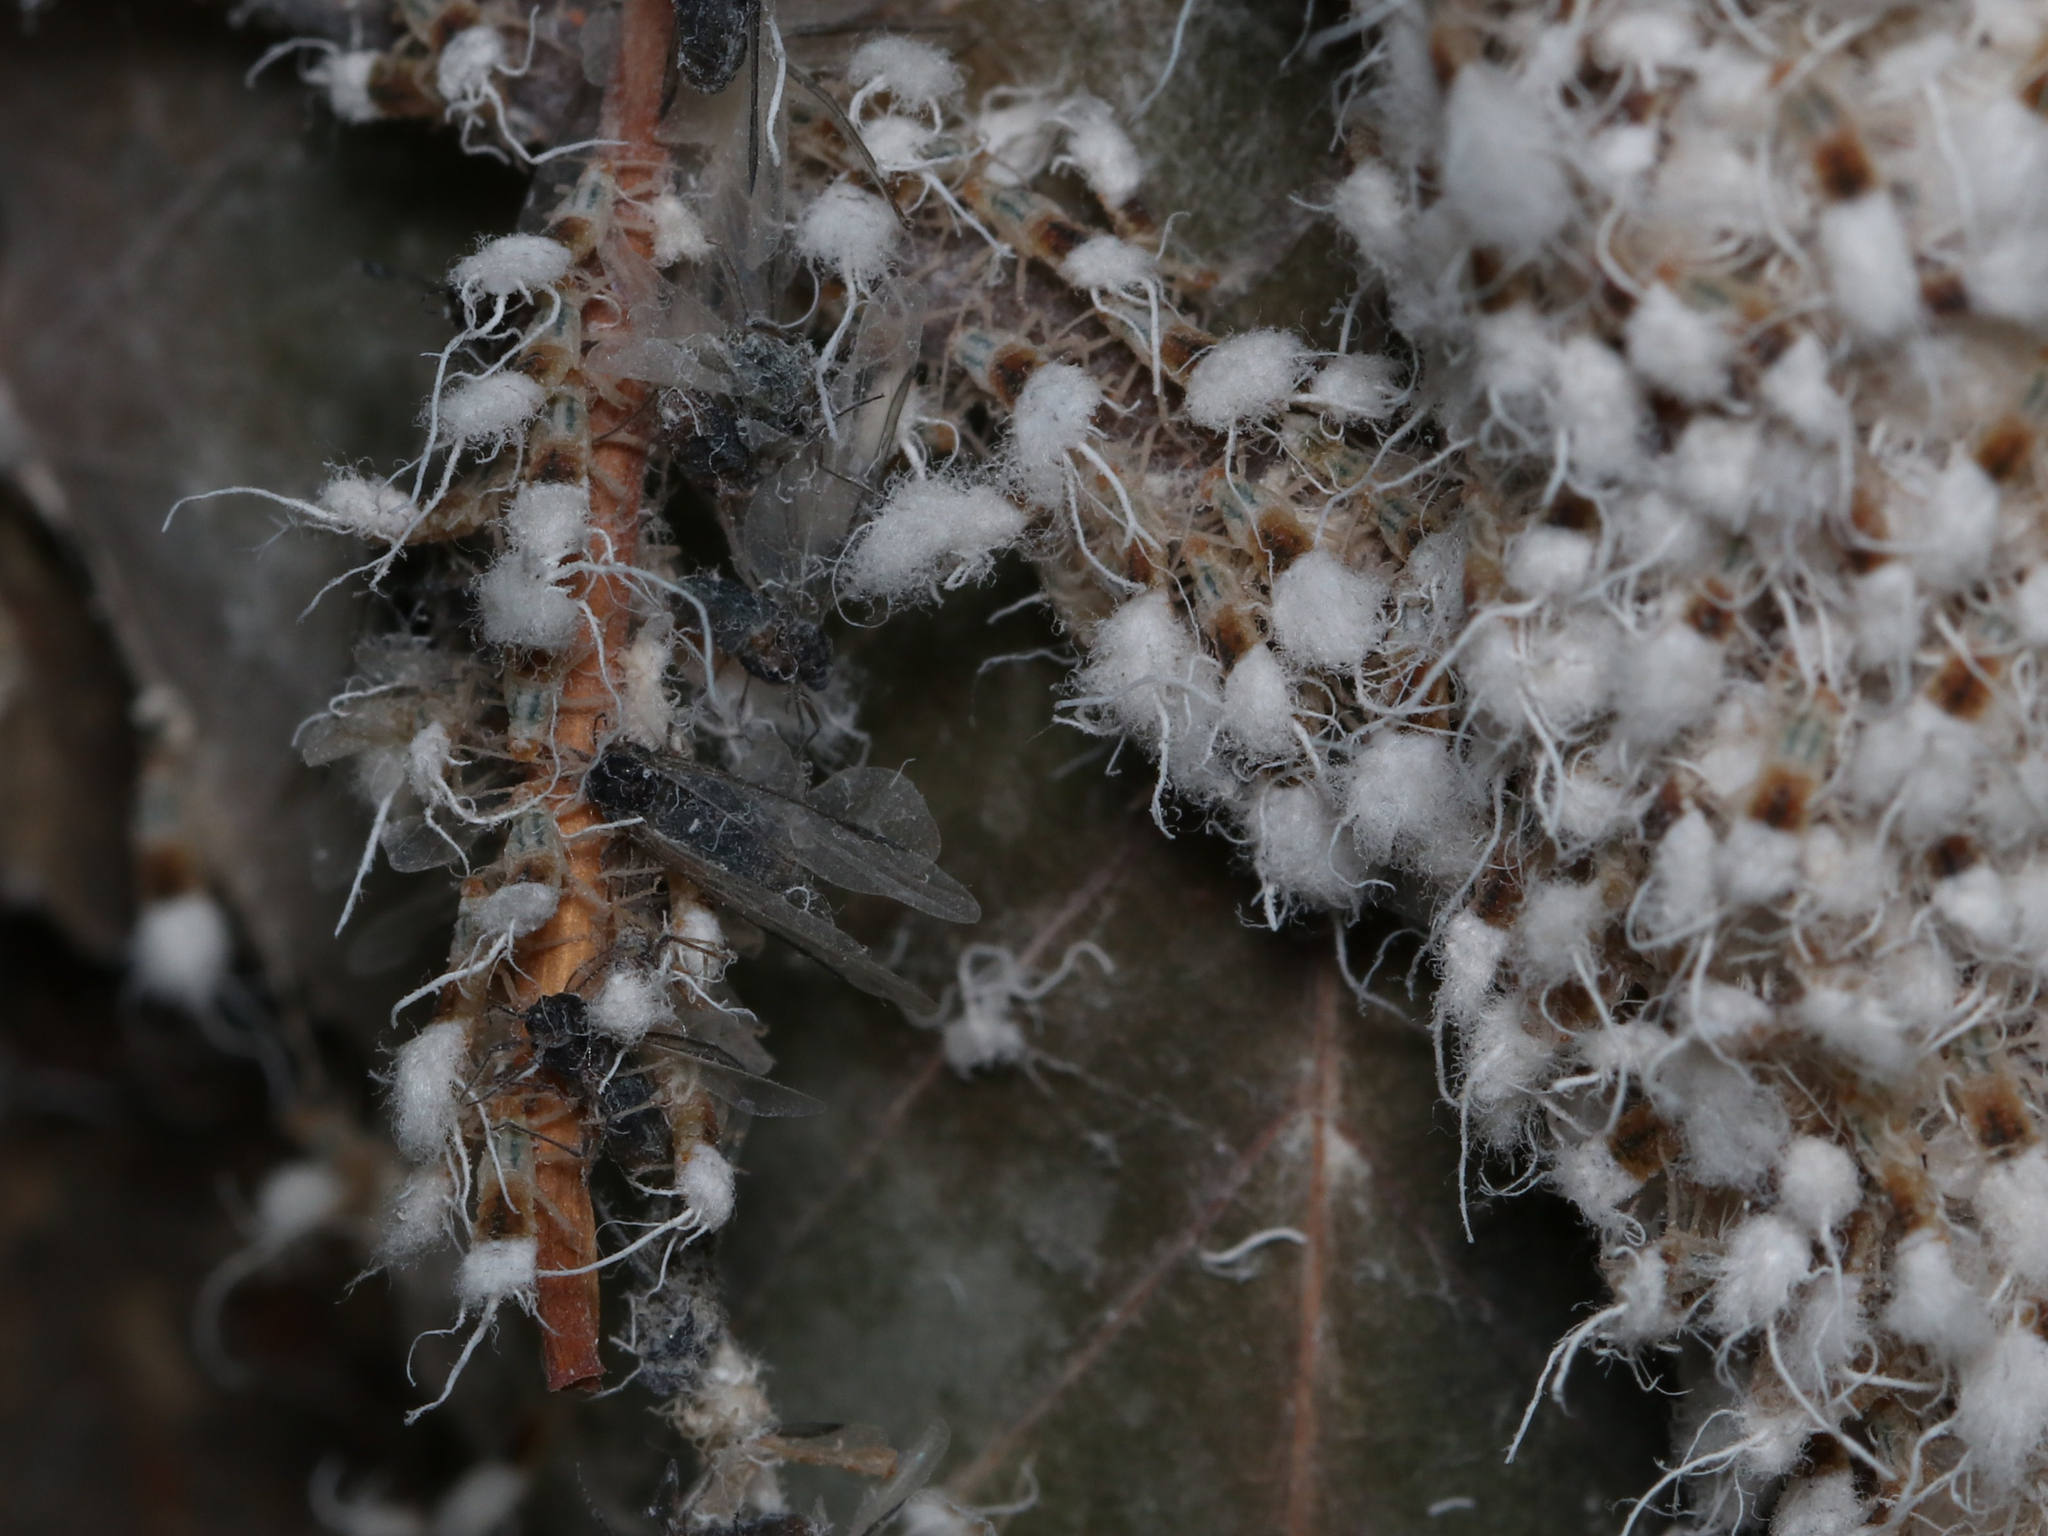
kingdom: Animalia
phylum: Arthropoda
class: Insecta
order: Hemiptera
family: Aphididae
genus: Grylloprociphilus
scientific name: Grylloprociphilus imbricator
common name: Beech blight aphid
